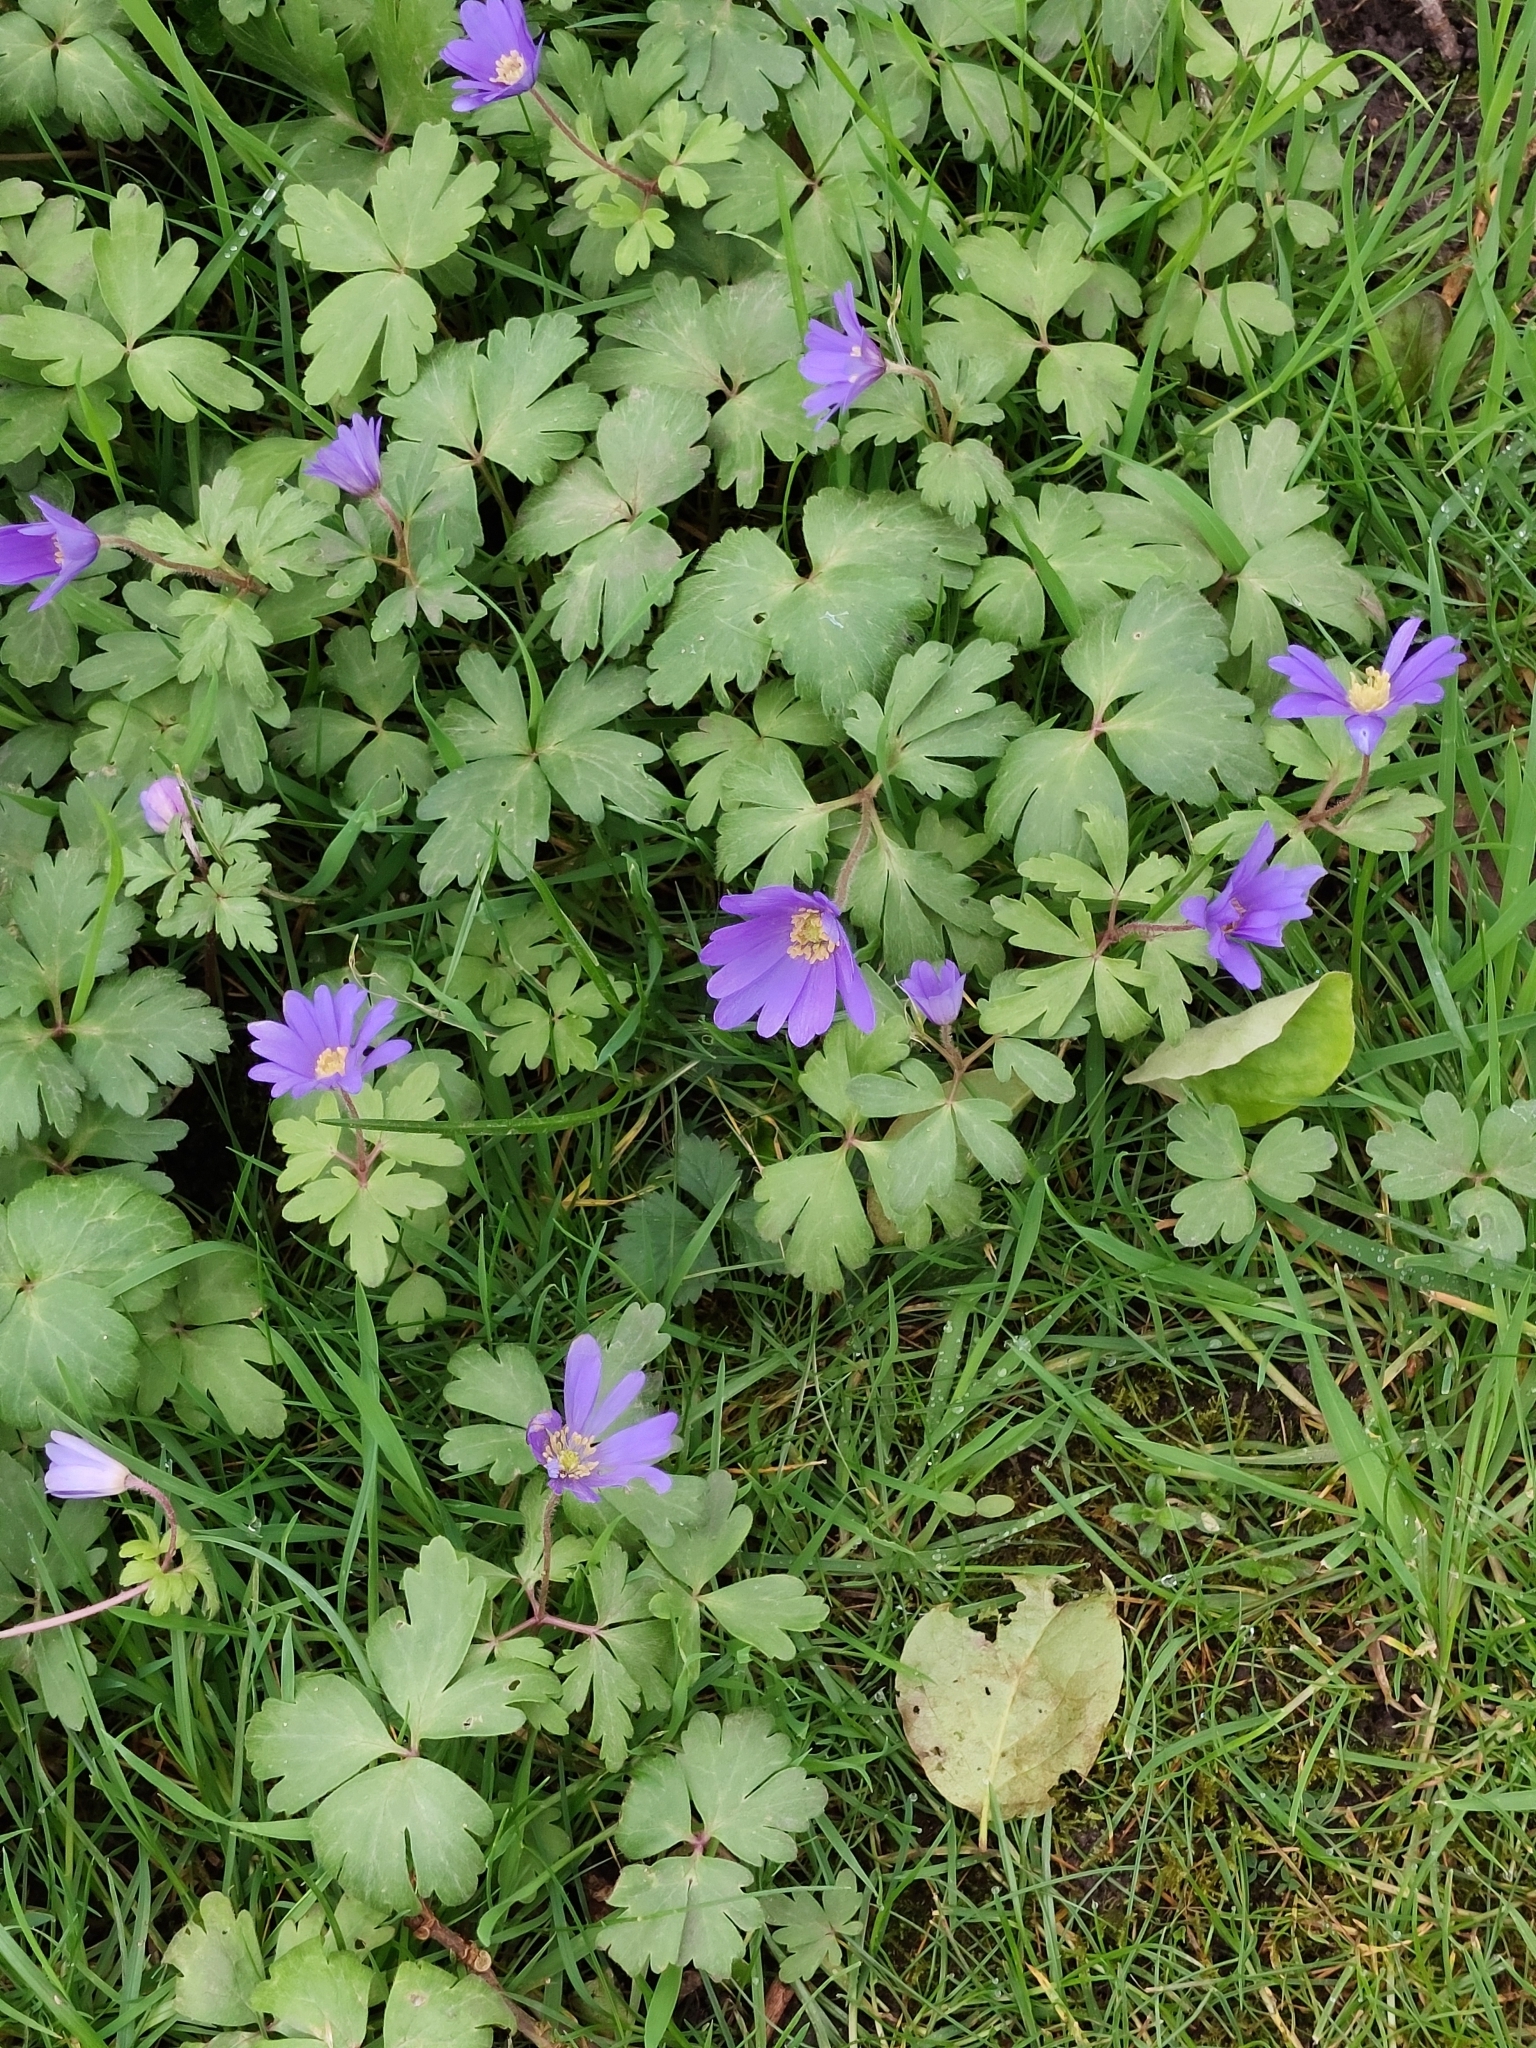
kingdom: Plantae
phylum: Tracheophyta
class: Magnoliopsida
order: Ranunculales
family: Ranunculaceae
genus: Anemone
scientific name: Anemone blanda
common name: Balkan anemone
